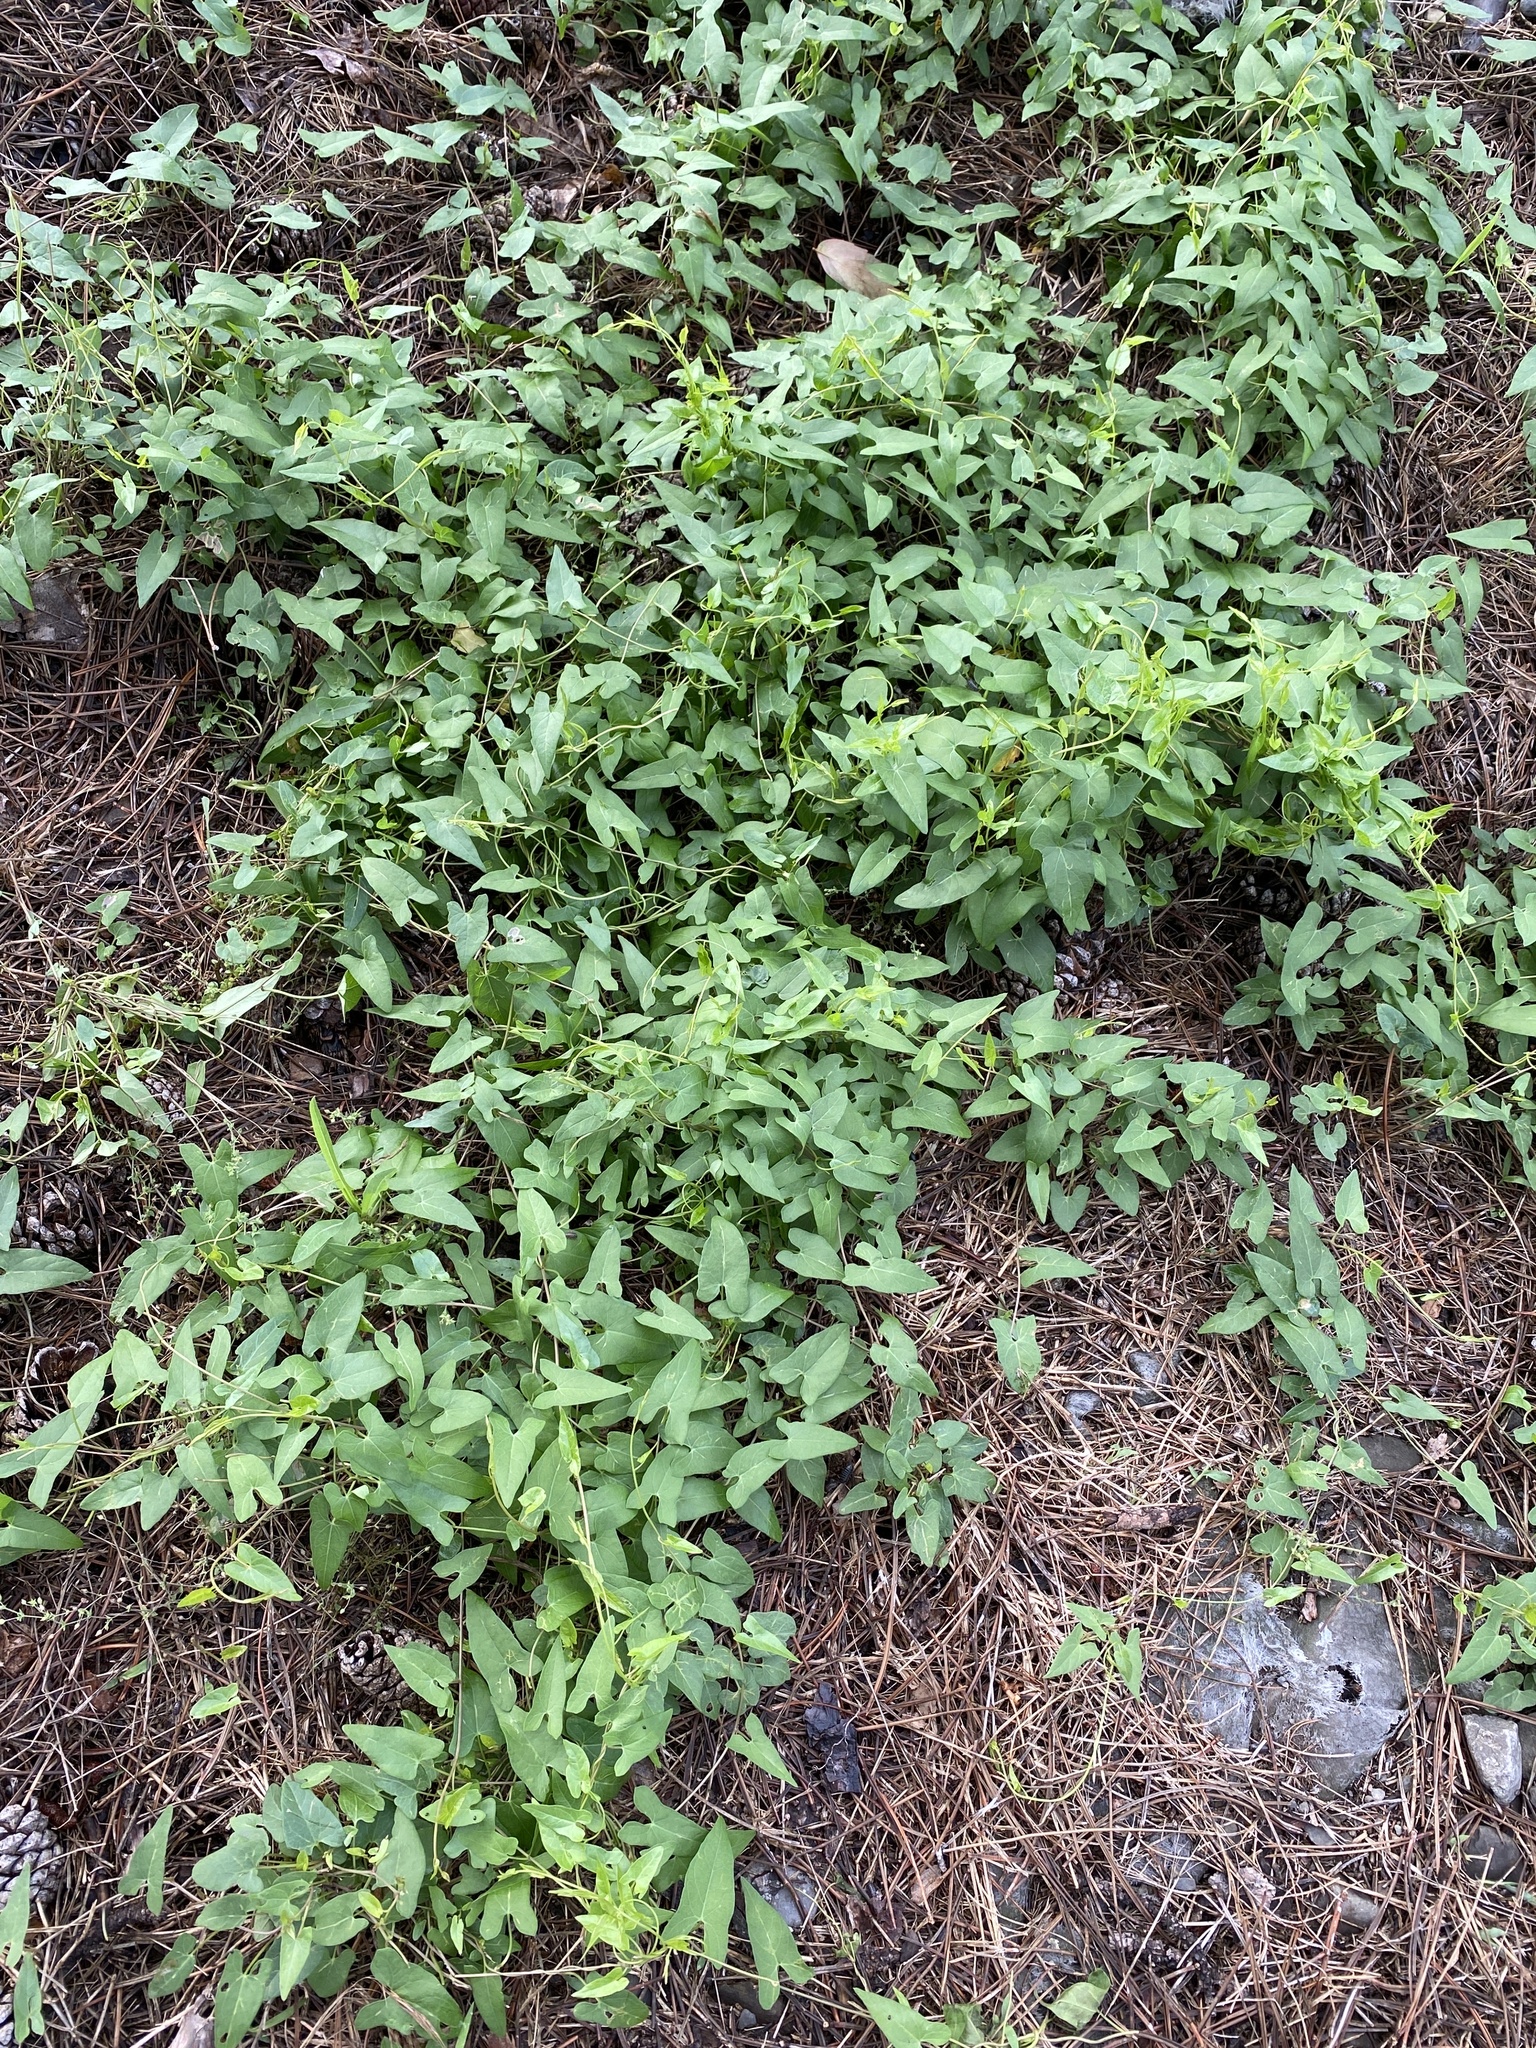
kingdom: Plantae
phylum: Tracheophyta
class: Magnoliopsida
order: Solanales
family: Convolvulaceae
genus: Calystegia
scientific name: Calystegia sepium
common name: Hedge bindweed
